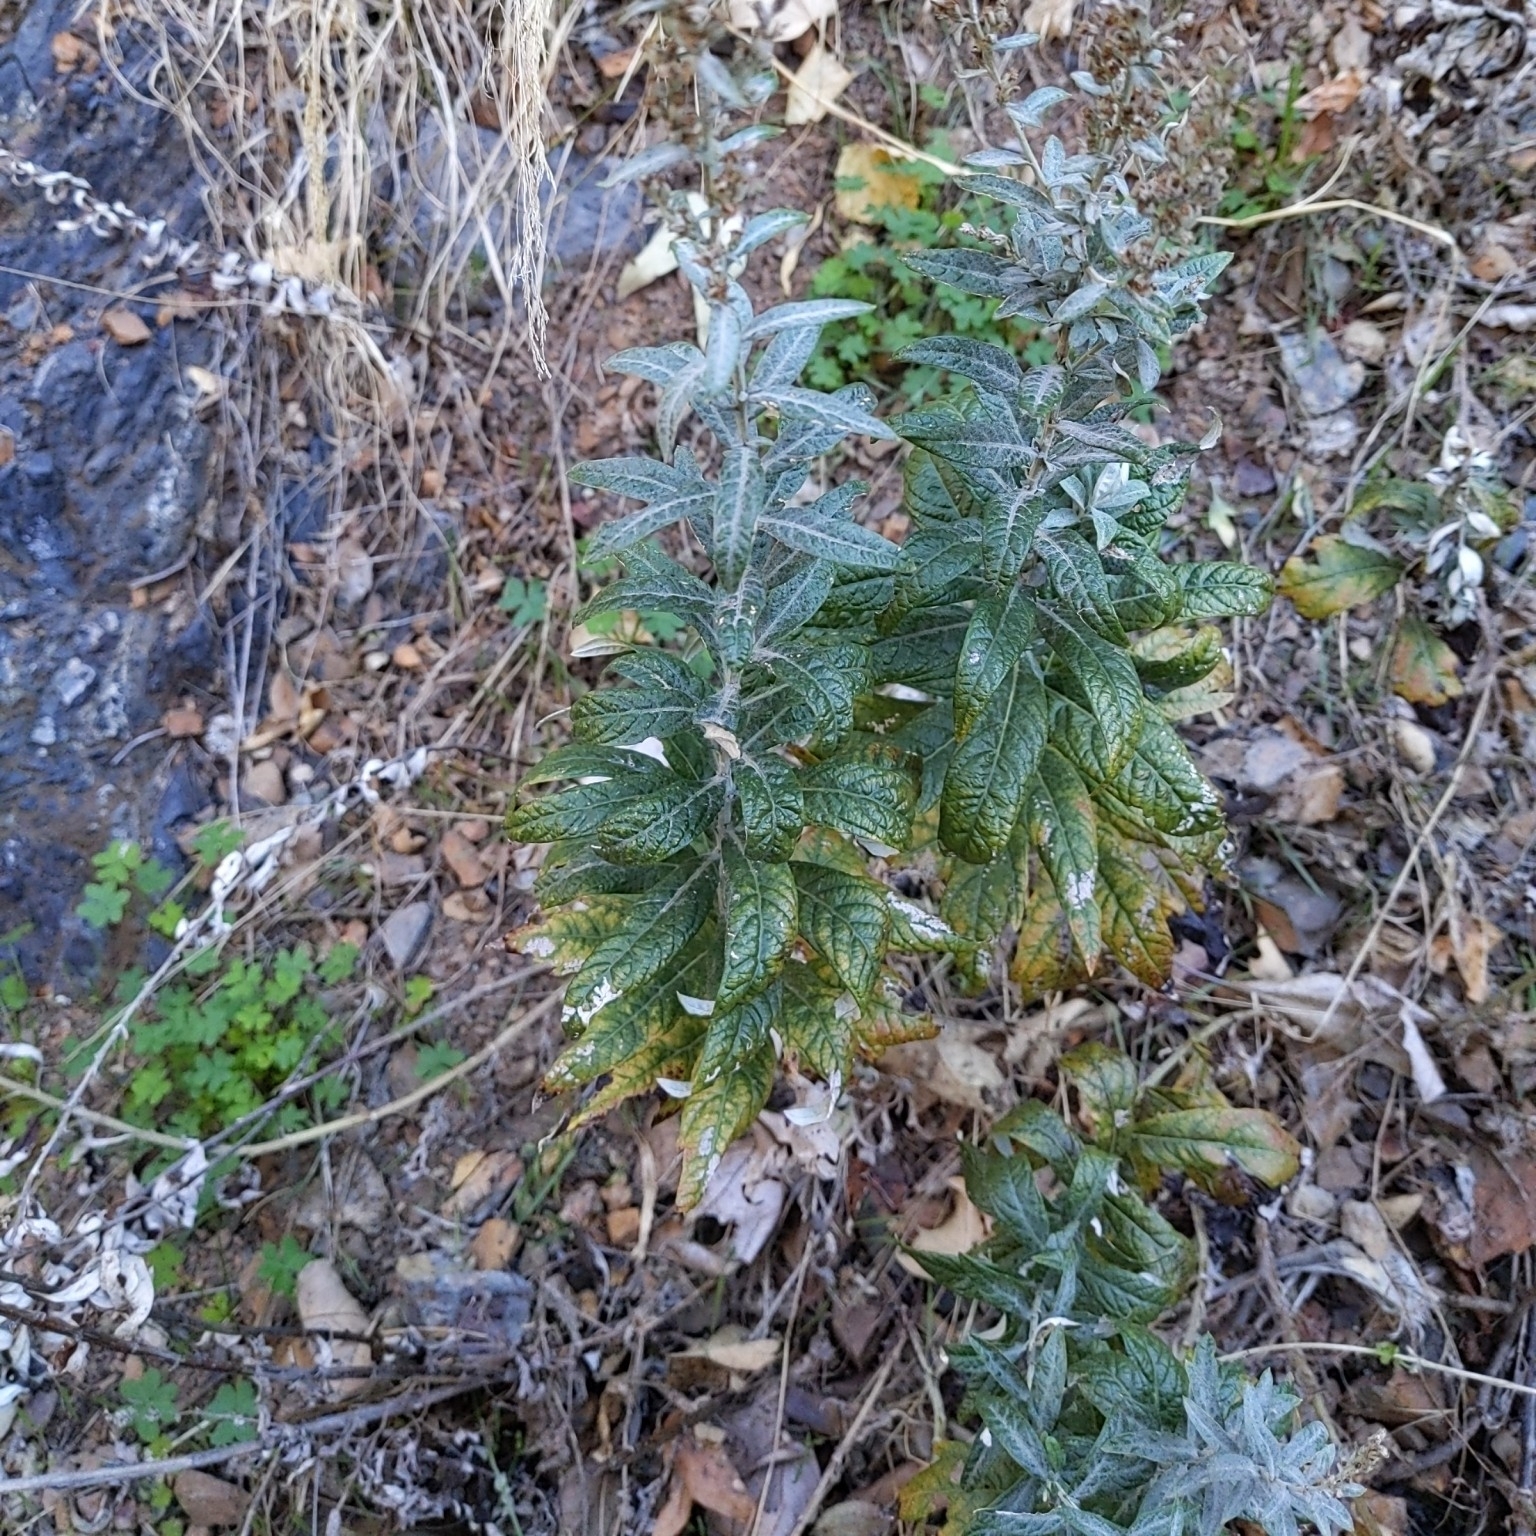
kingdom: Plantae
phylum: Tracheophyta
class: Magnoliopsida
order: Asterales
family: Asteraceae
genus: Artemisia
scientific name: Artemisia douglasiana
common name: Northwest mugwort
